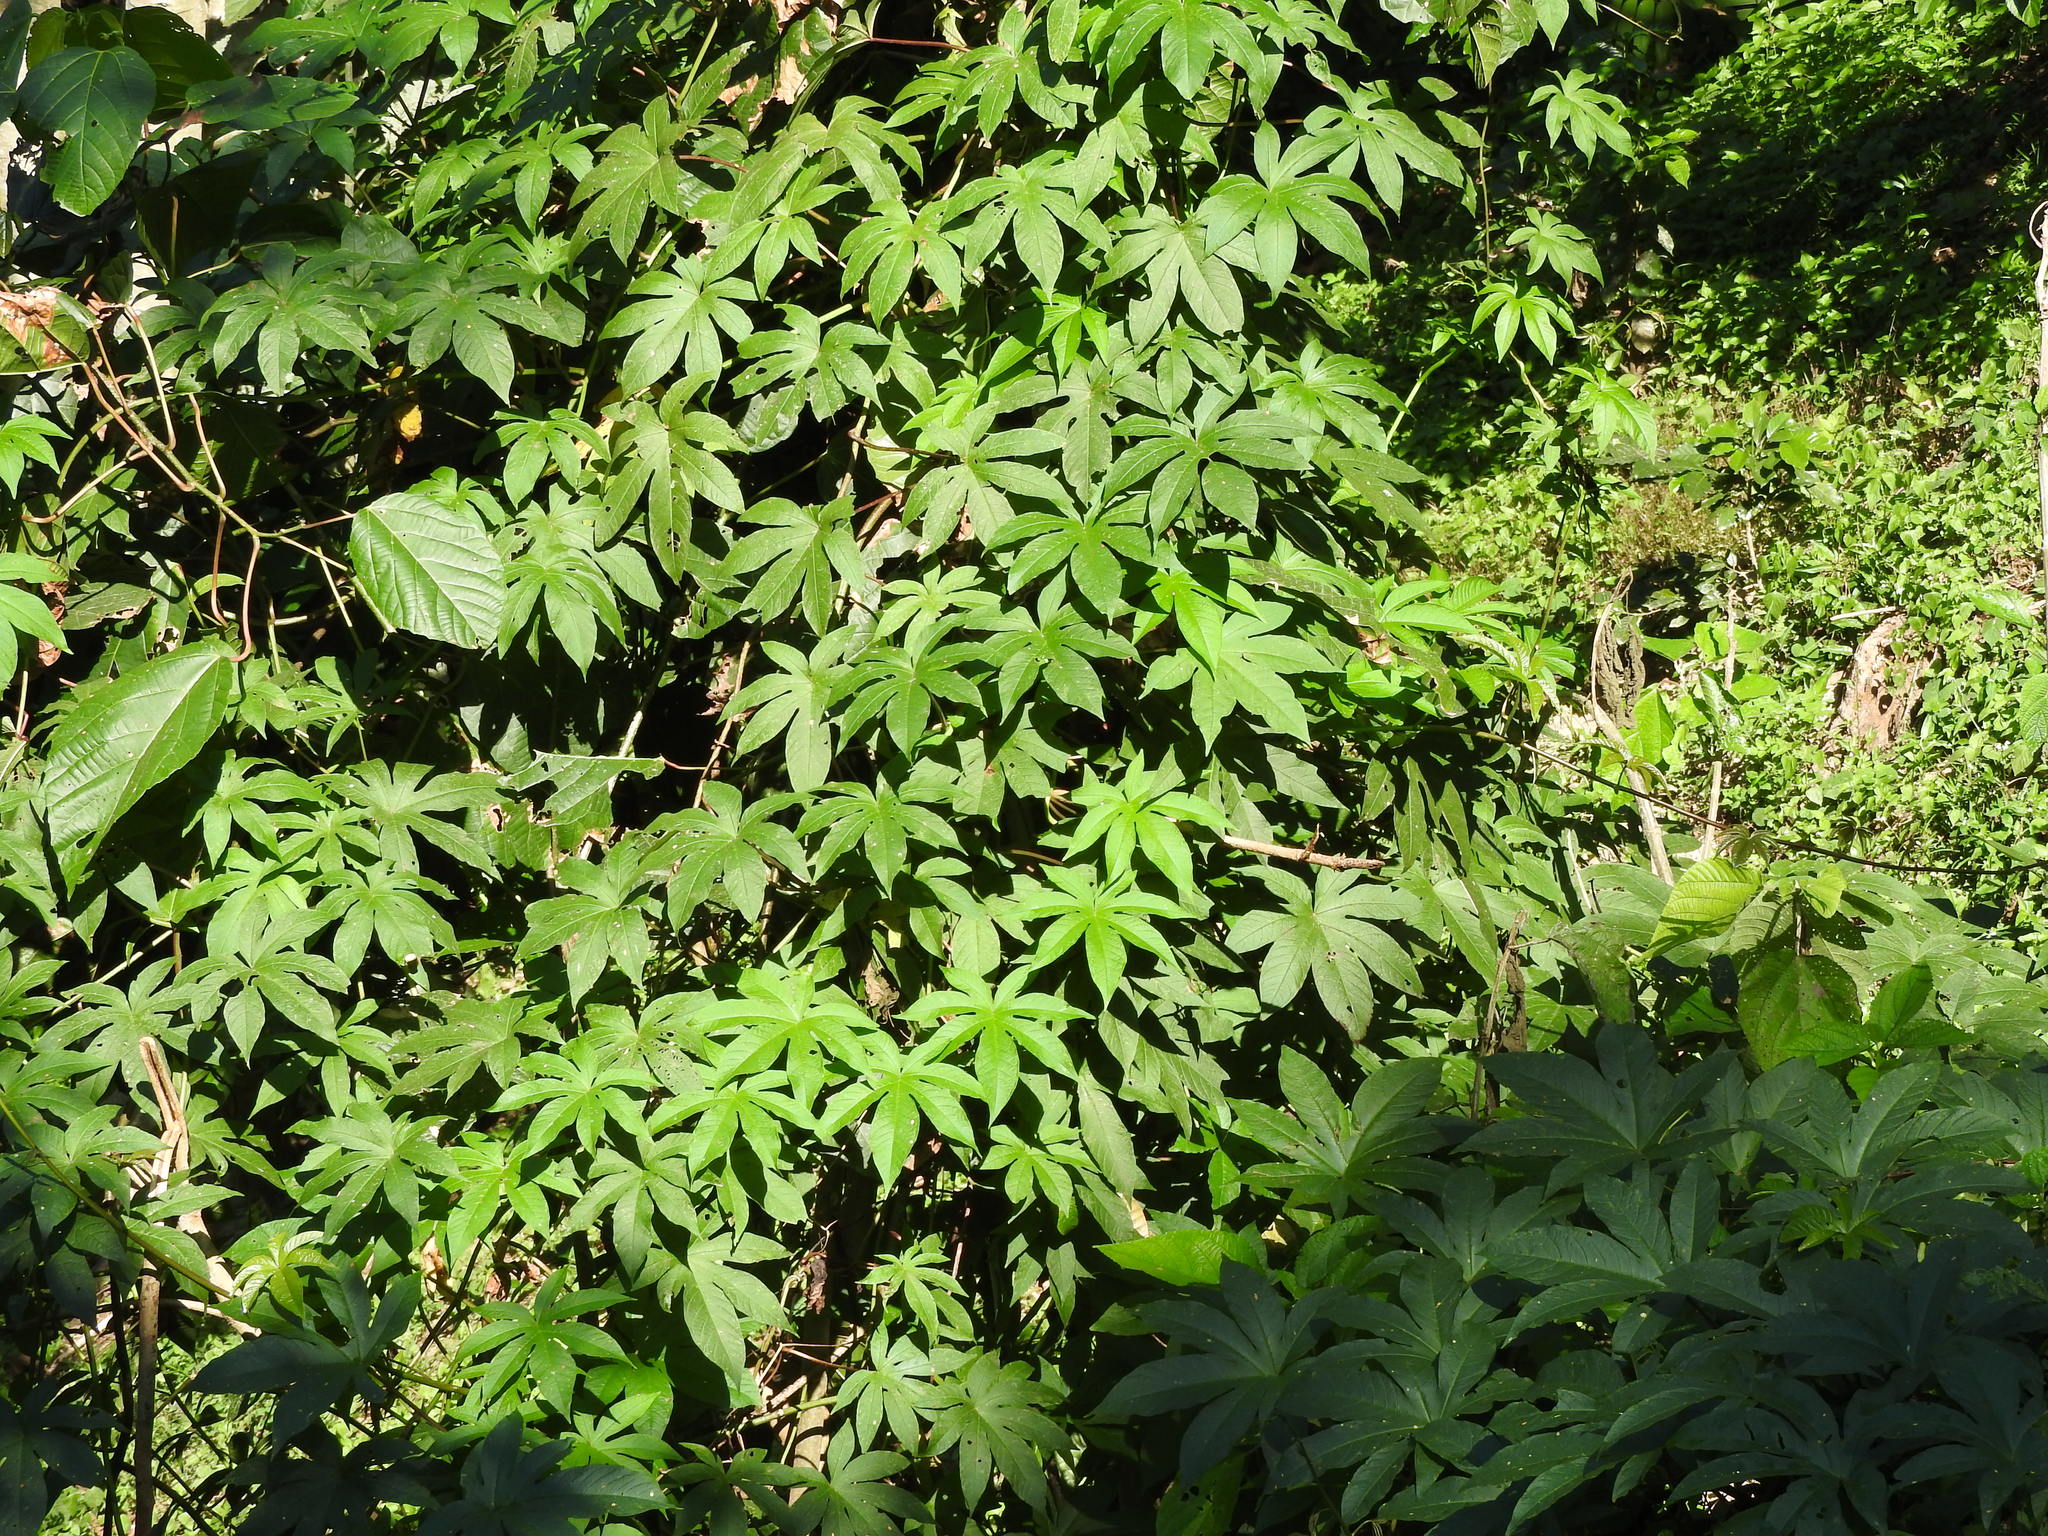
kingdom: Plantae
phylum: Tracheophyta
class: Magnoliopsida
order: Solanales
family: Convolvulaceae
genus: Distimake
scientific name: Distimake tuberosus
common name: Spanish arborvine
